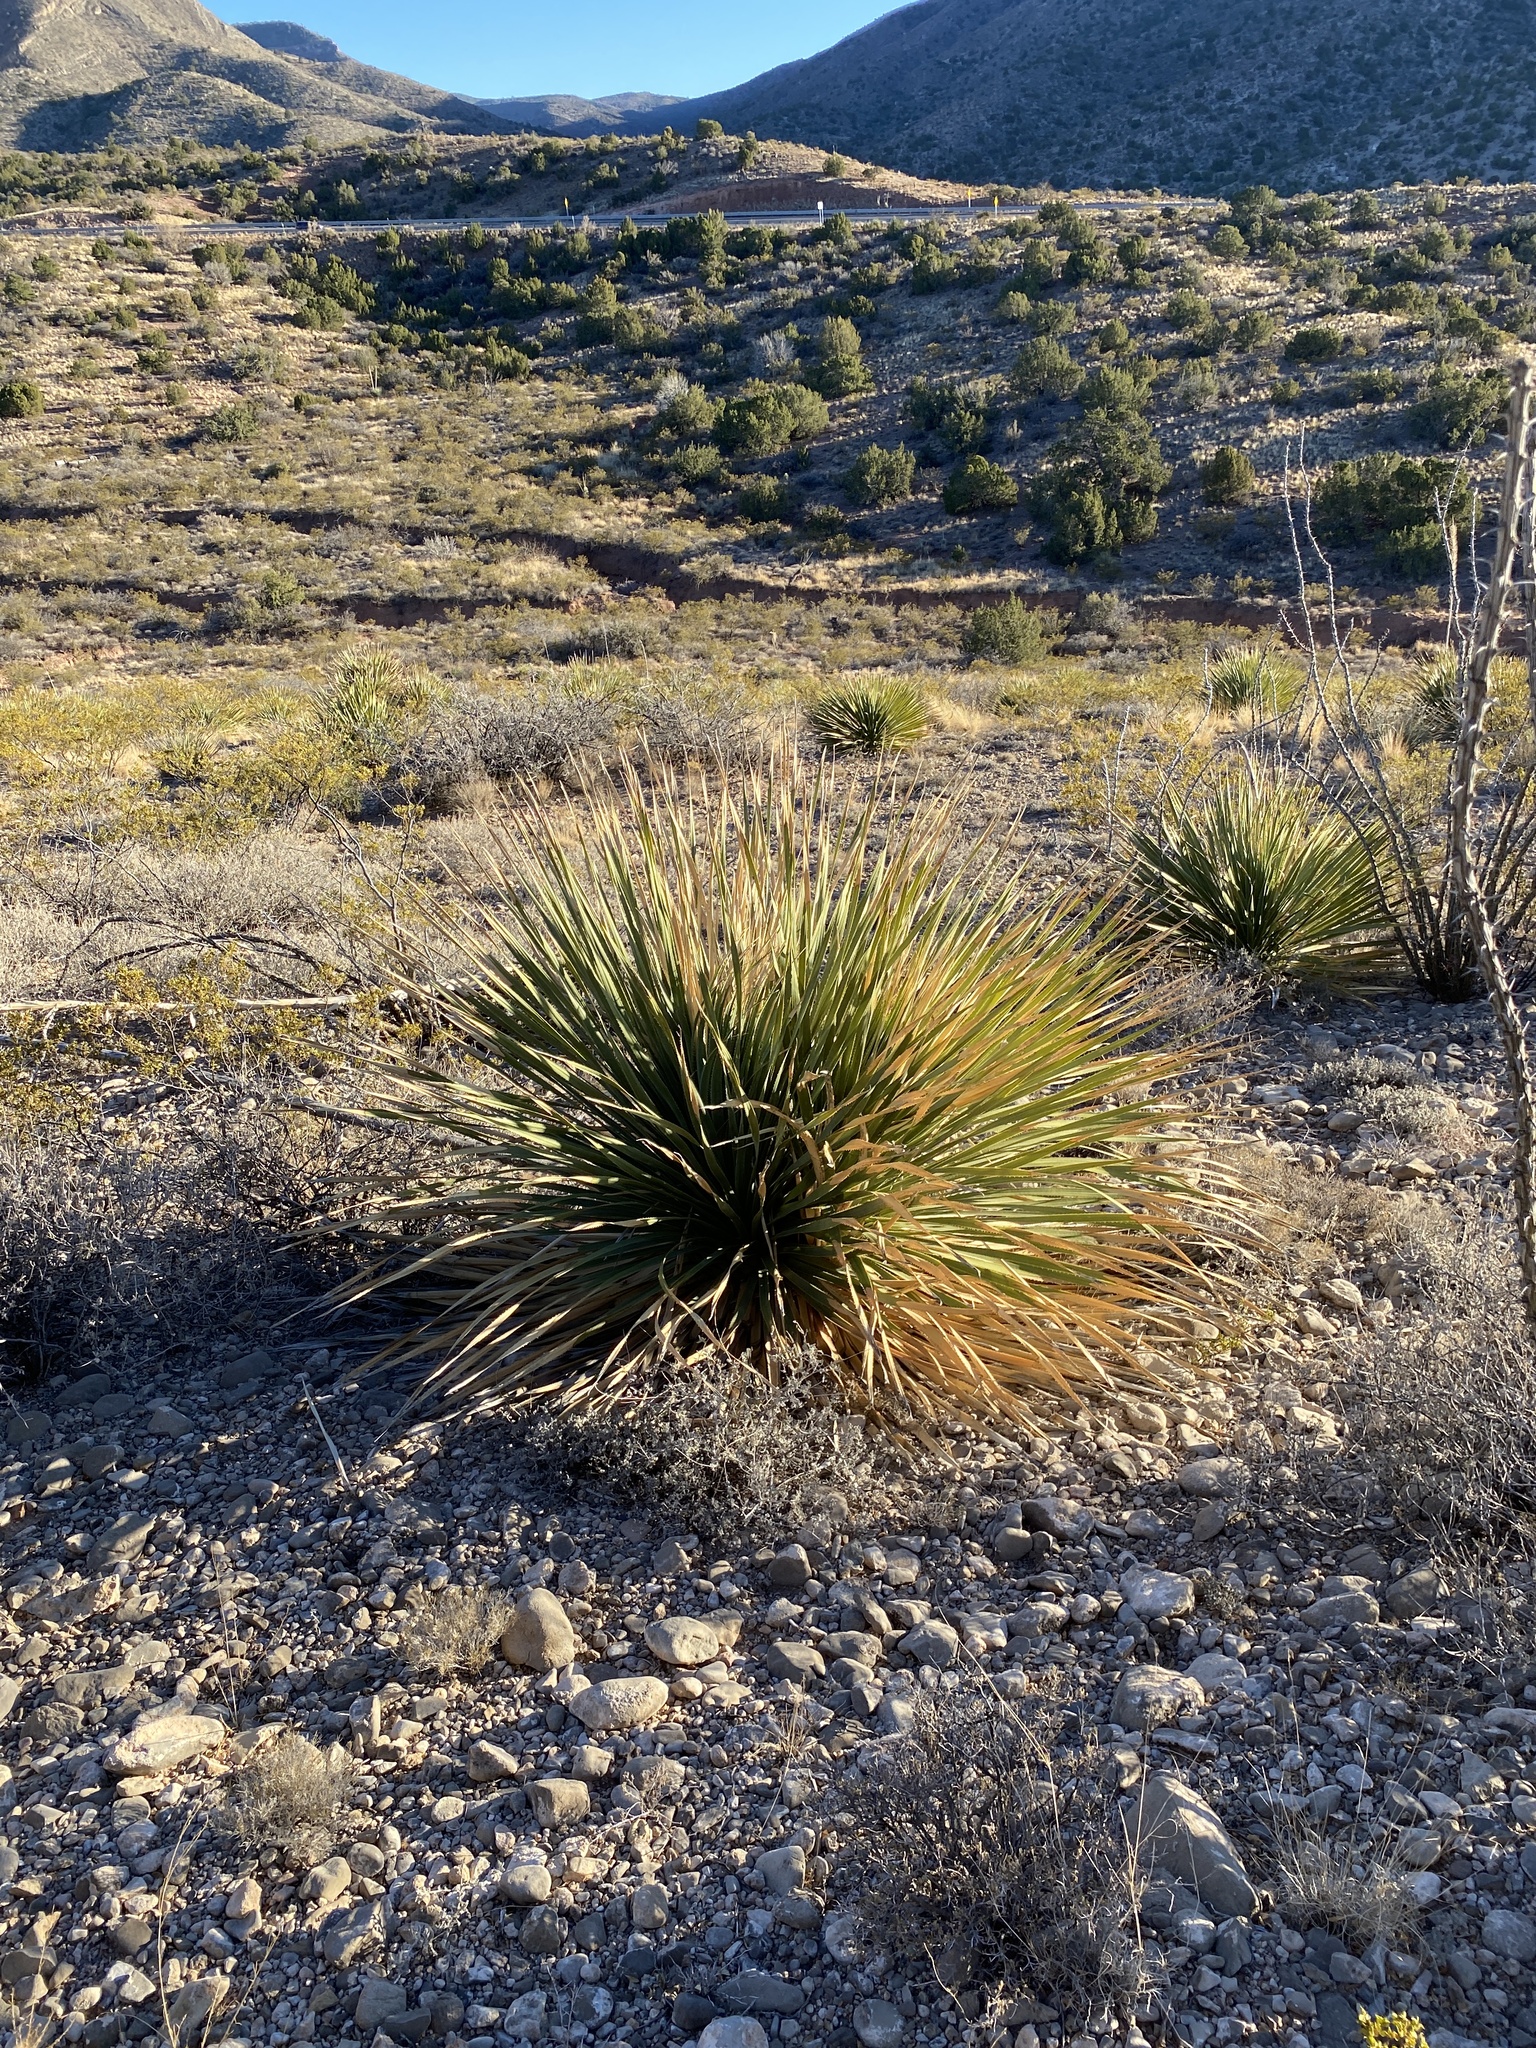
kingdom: Plantae
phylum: Tracheophyta
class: Liliopsida
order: Asparagales
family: Asparagaceae
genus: Dasylirion
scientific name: Dasylirion wheeleri
